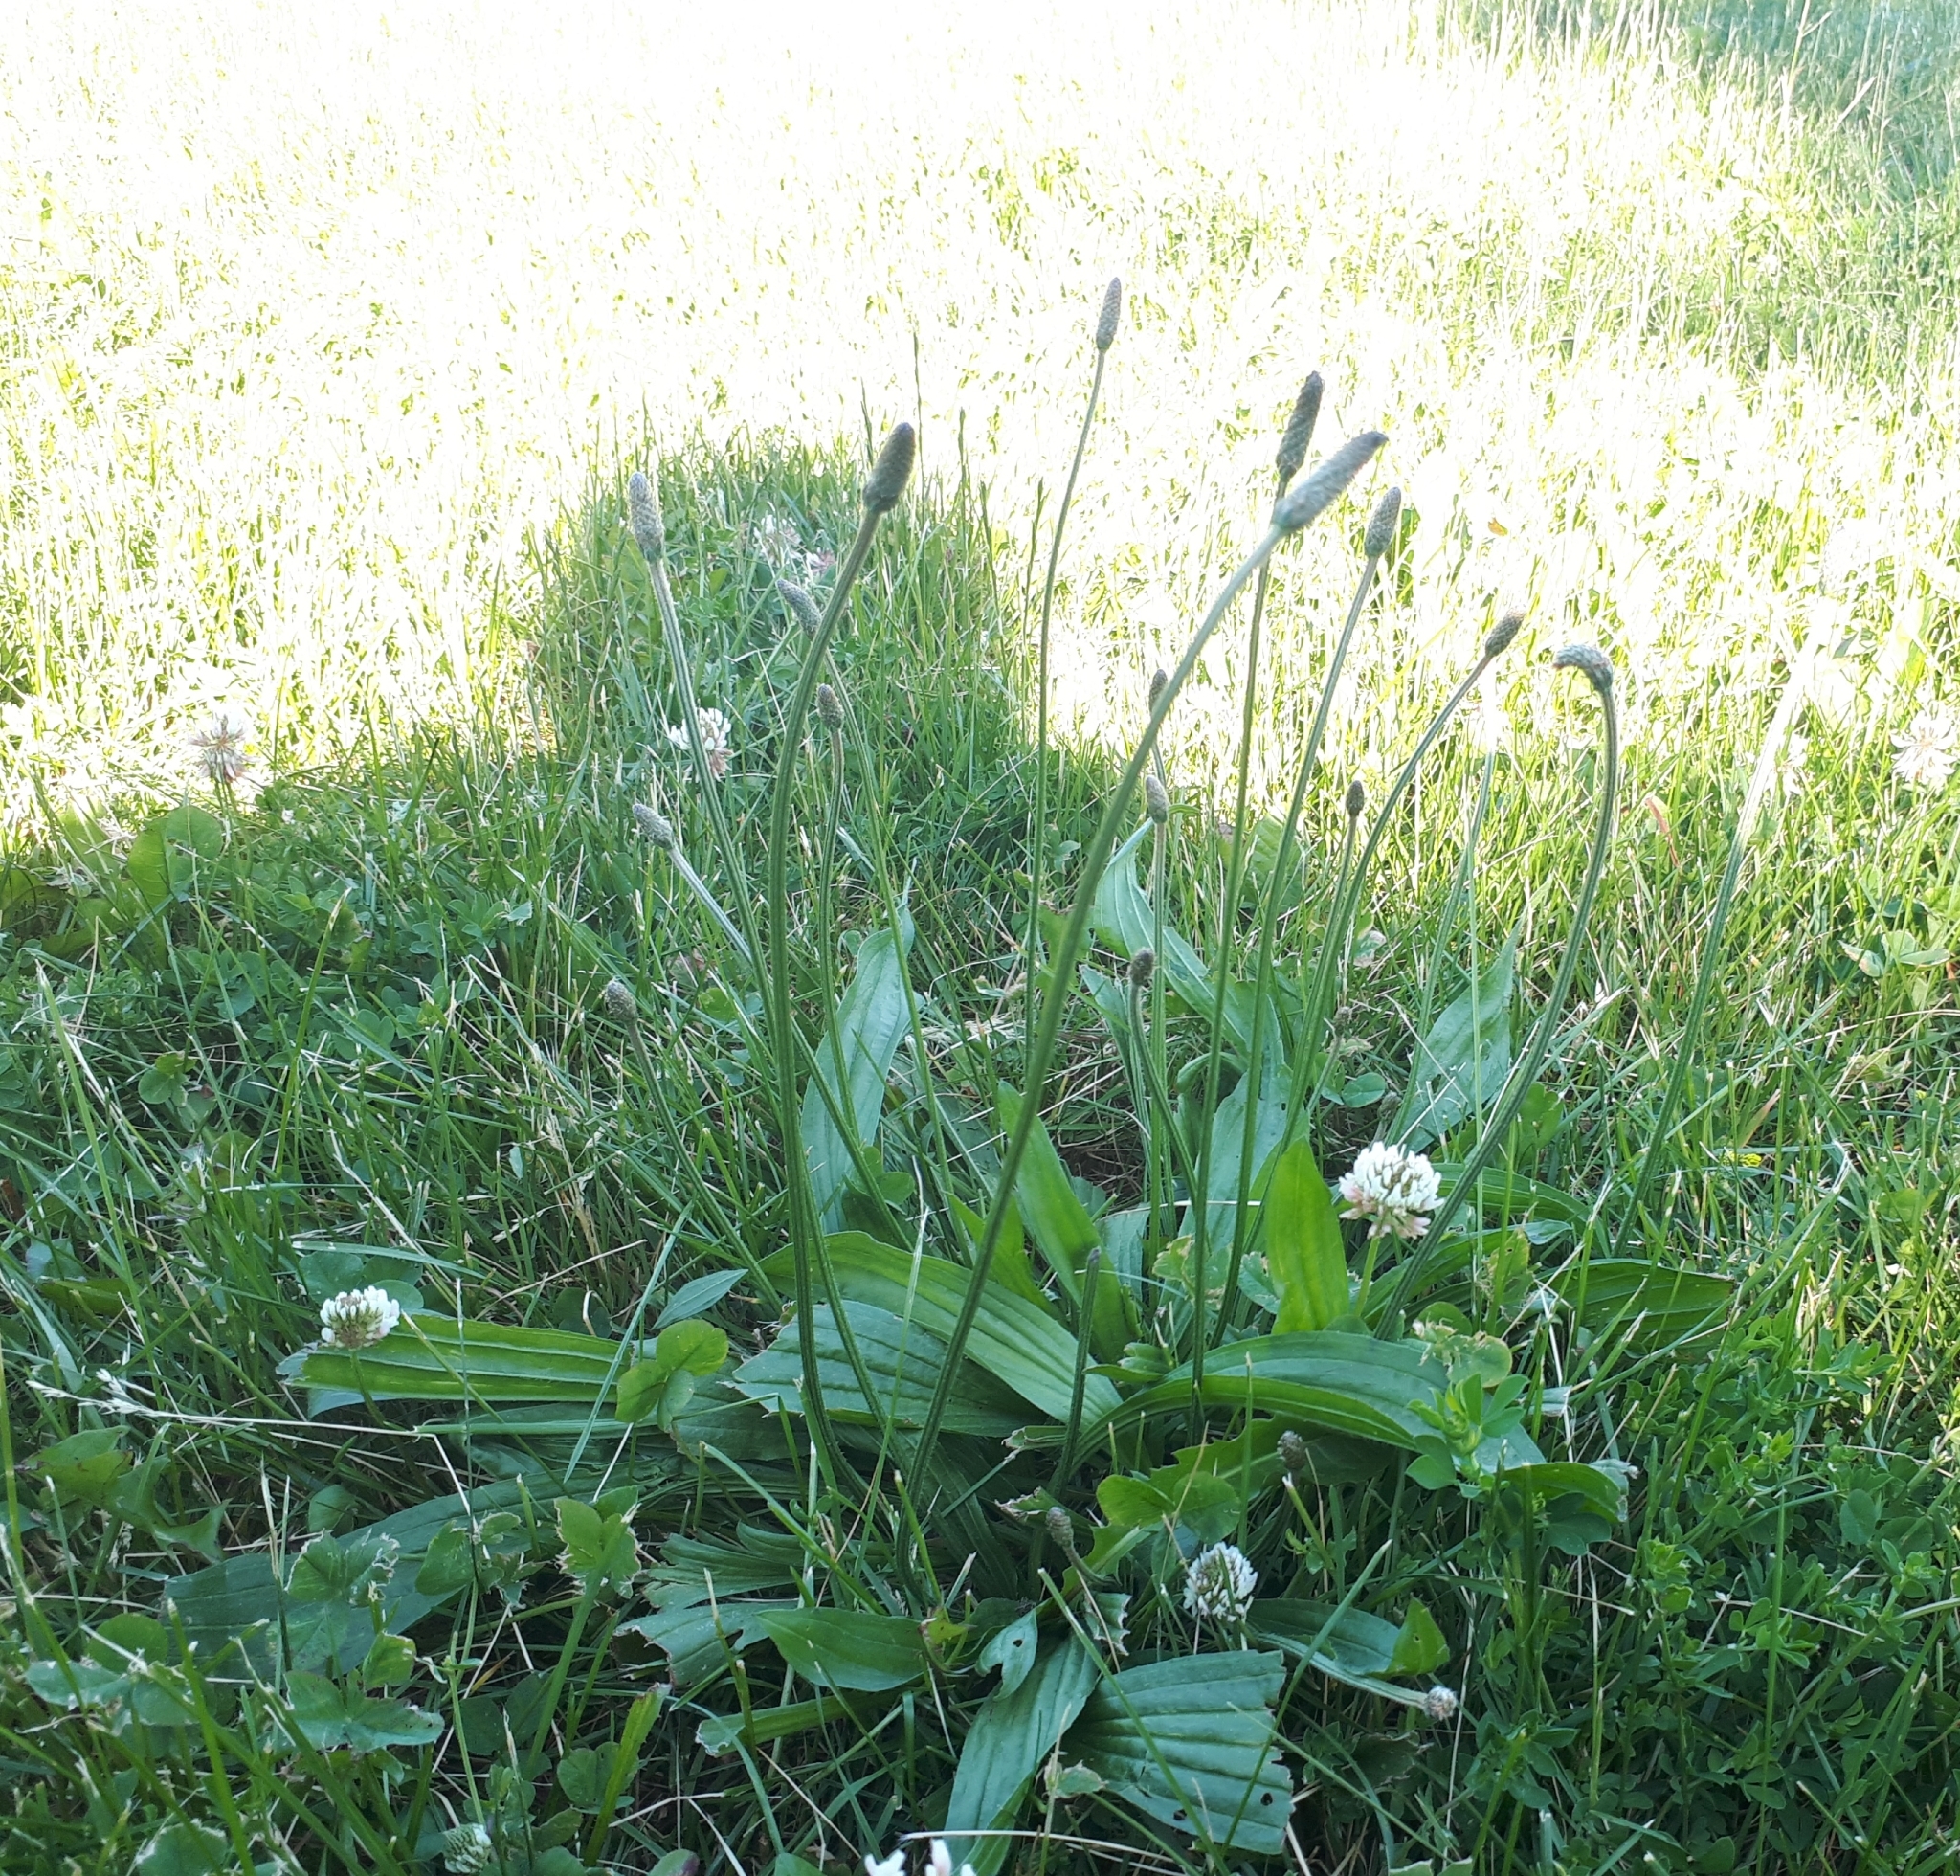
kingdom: Plantae
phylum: Tracheophyta
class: Magnoliopsida
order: Lamiales
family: Plantaginaceae
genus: Plantago
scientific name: Plantago lanceolata
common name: Ribwort plantain
